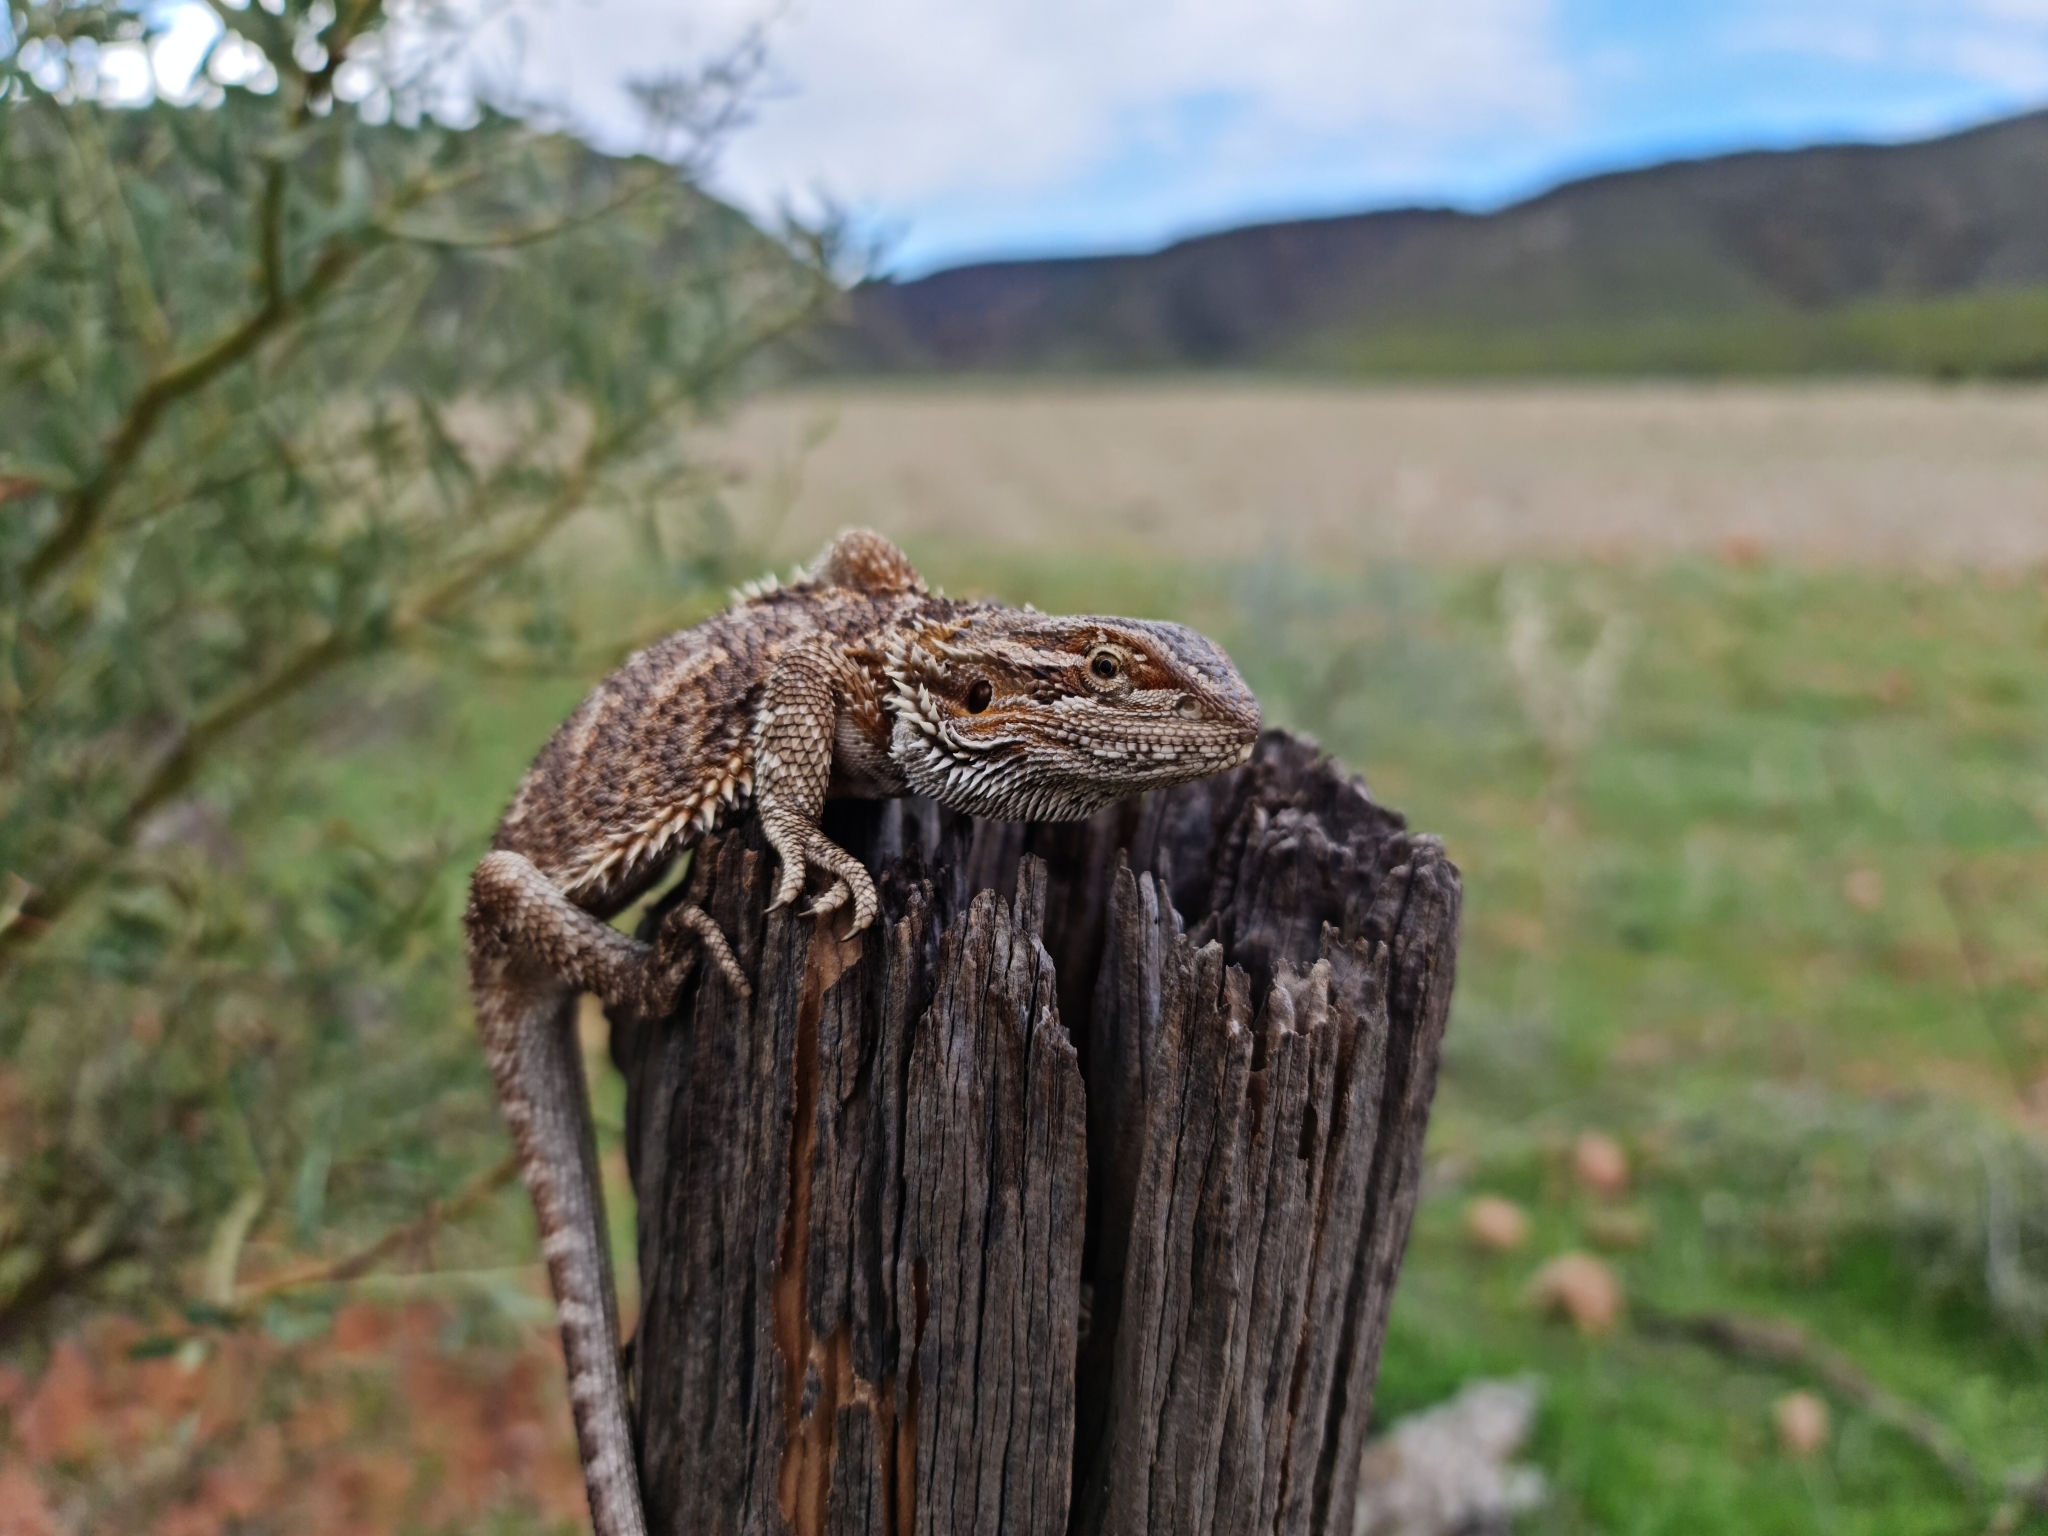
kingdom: Animalia
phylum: Chordata
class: Squamata
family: Agamidae
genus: Pogona
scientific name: Pogona vitticeps
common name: Central bearded dragon
